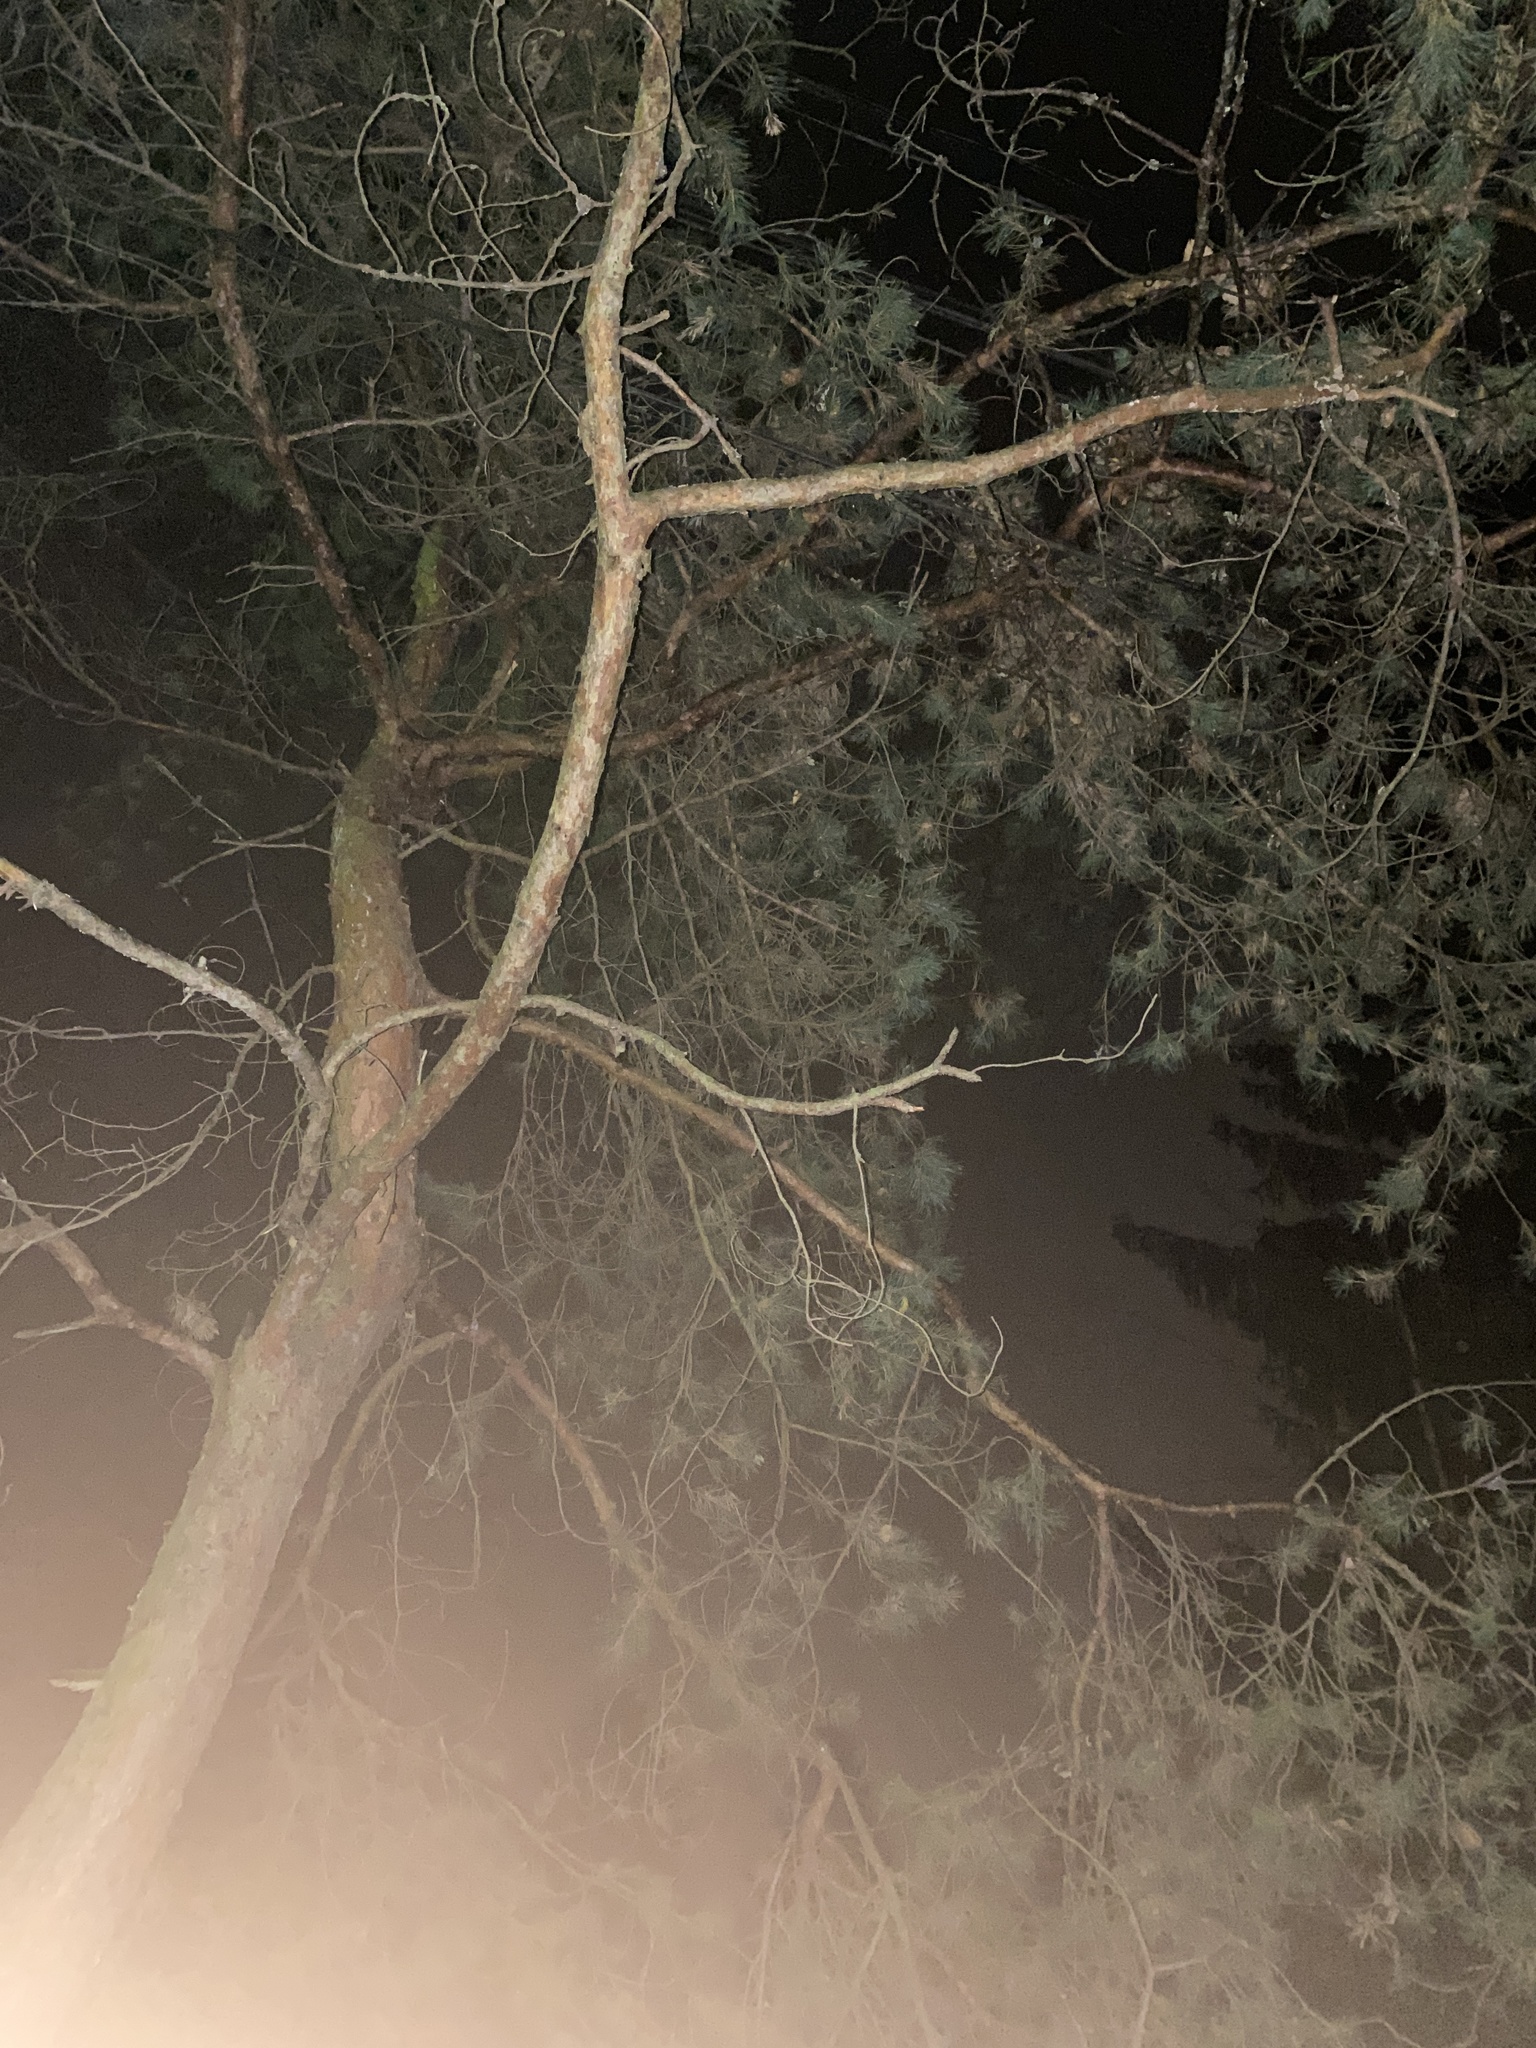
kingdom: Plantae
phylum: Tracheophyta
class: Pinopsida
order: Pinales
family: Pinaceae
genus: Pinus
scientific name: Pinus sylvestris
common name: Scots pine
